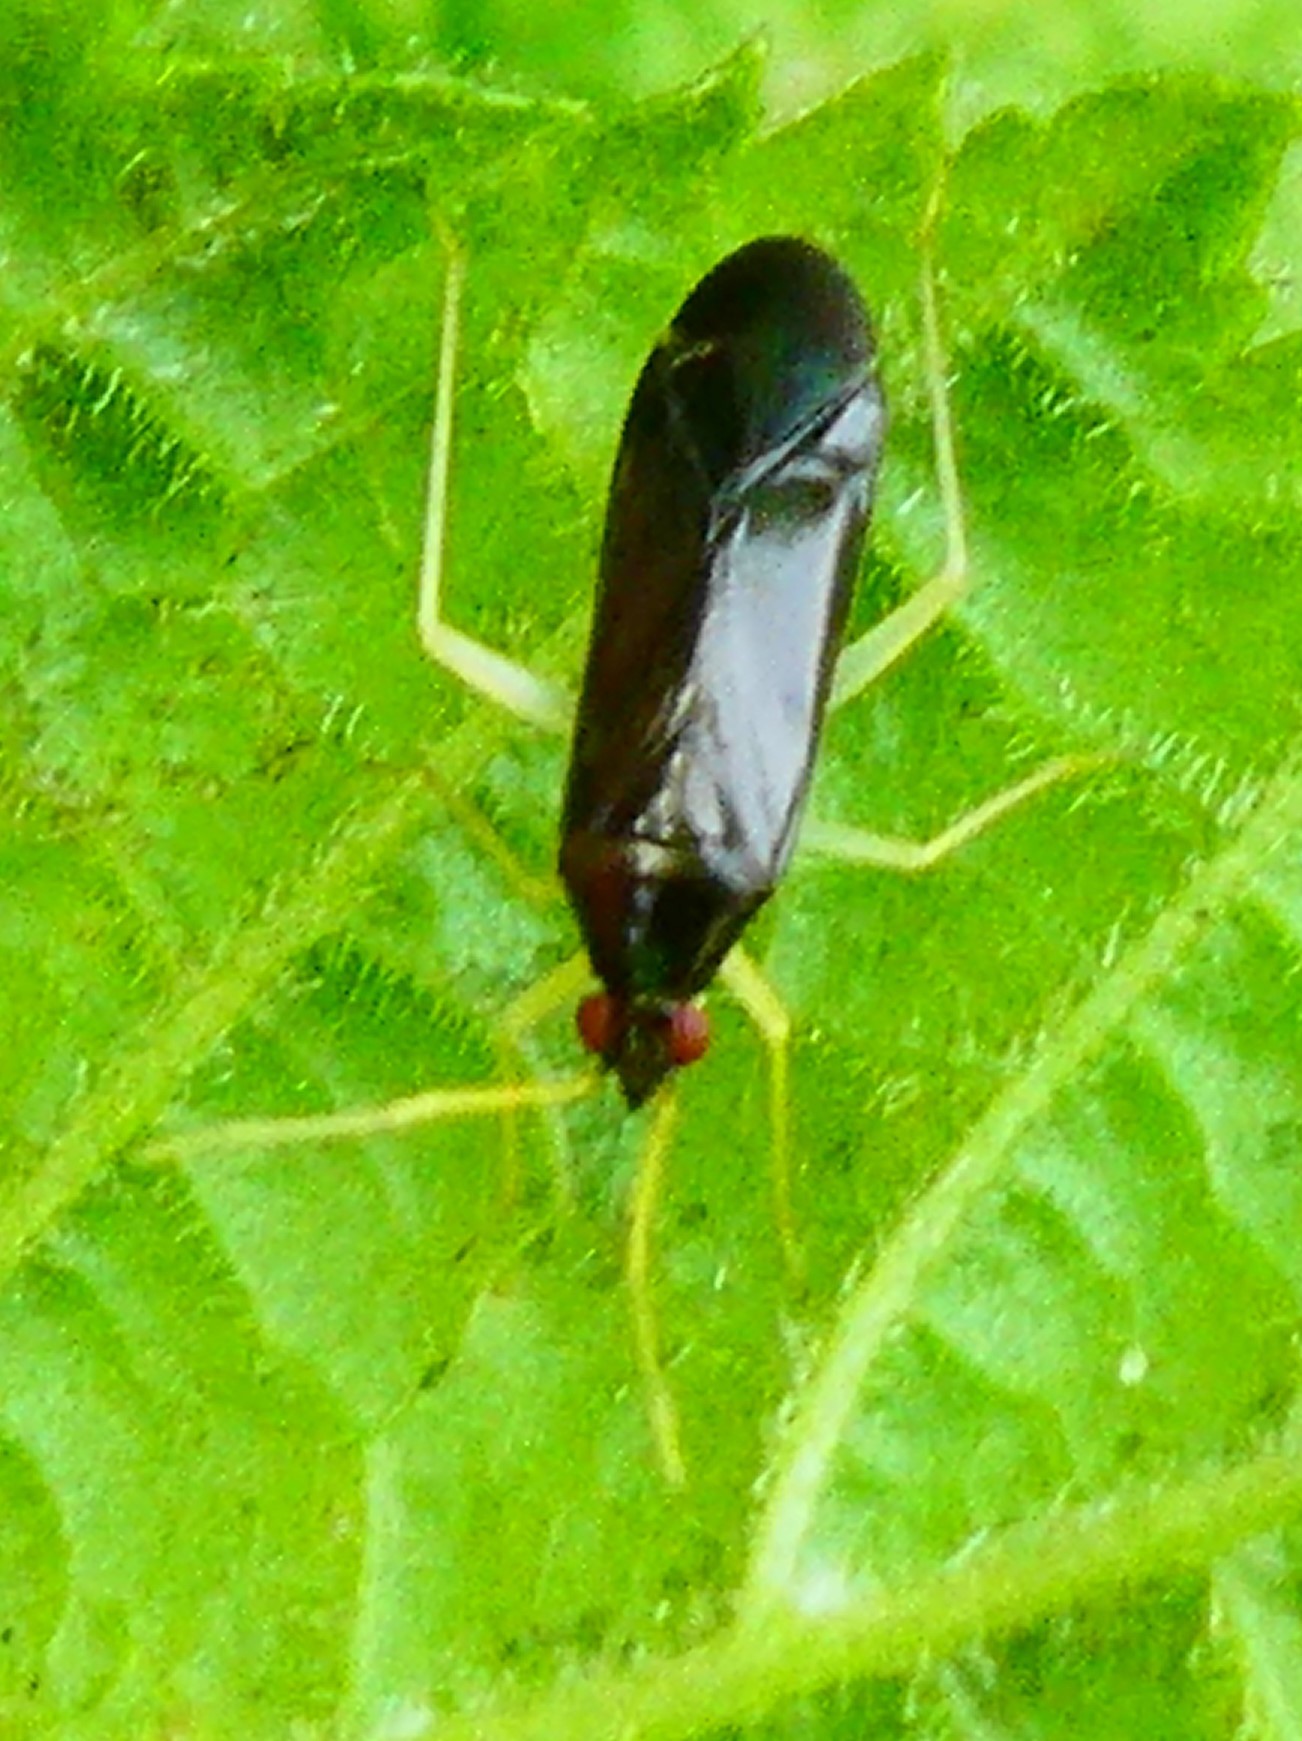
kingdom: Animalia
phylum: Arthropoda
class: Insecta
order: Hemiptera
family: Miridae
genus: Phylus
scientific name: Phylus coryli
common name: Plant bug
